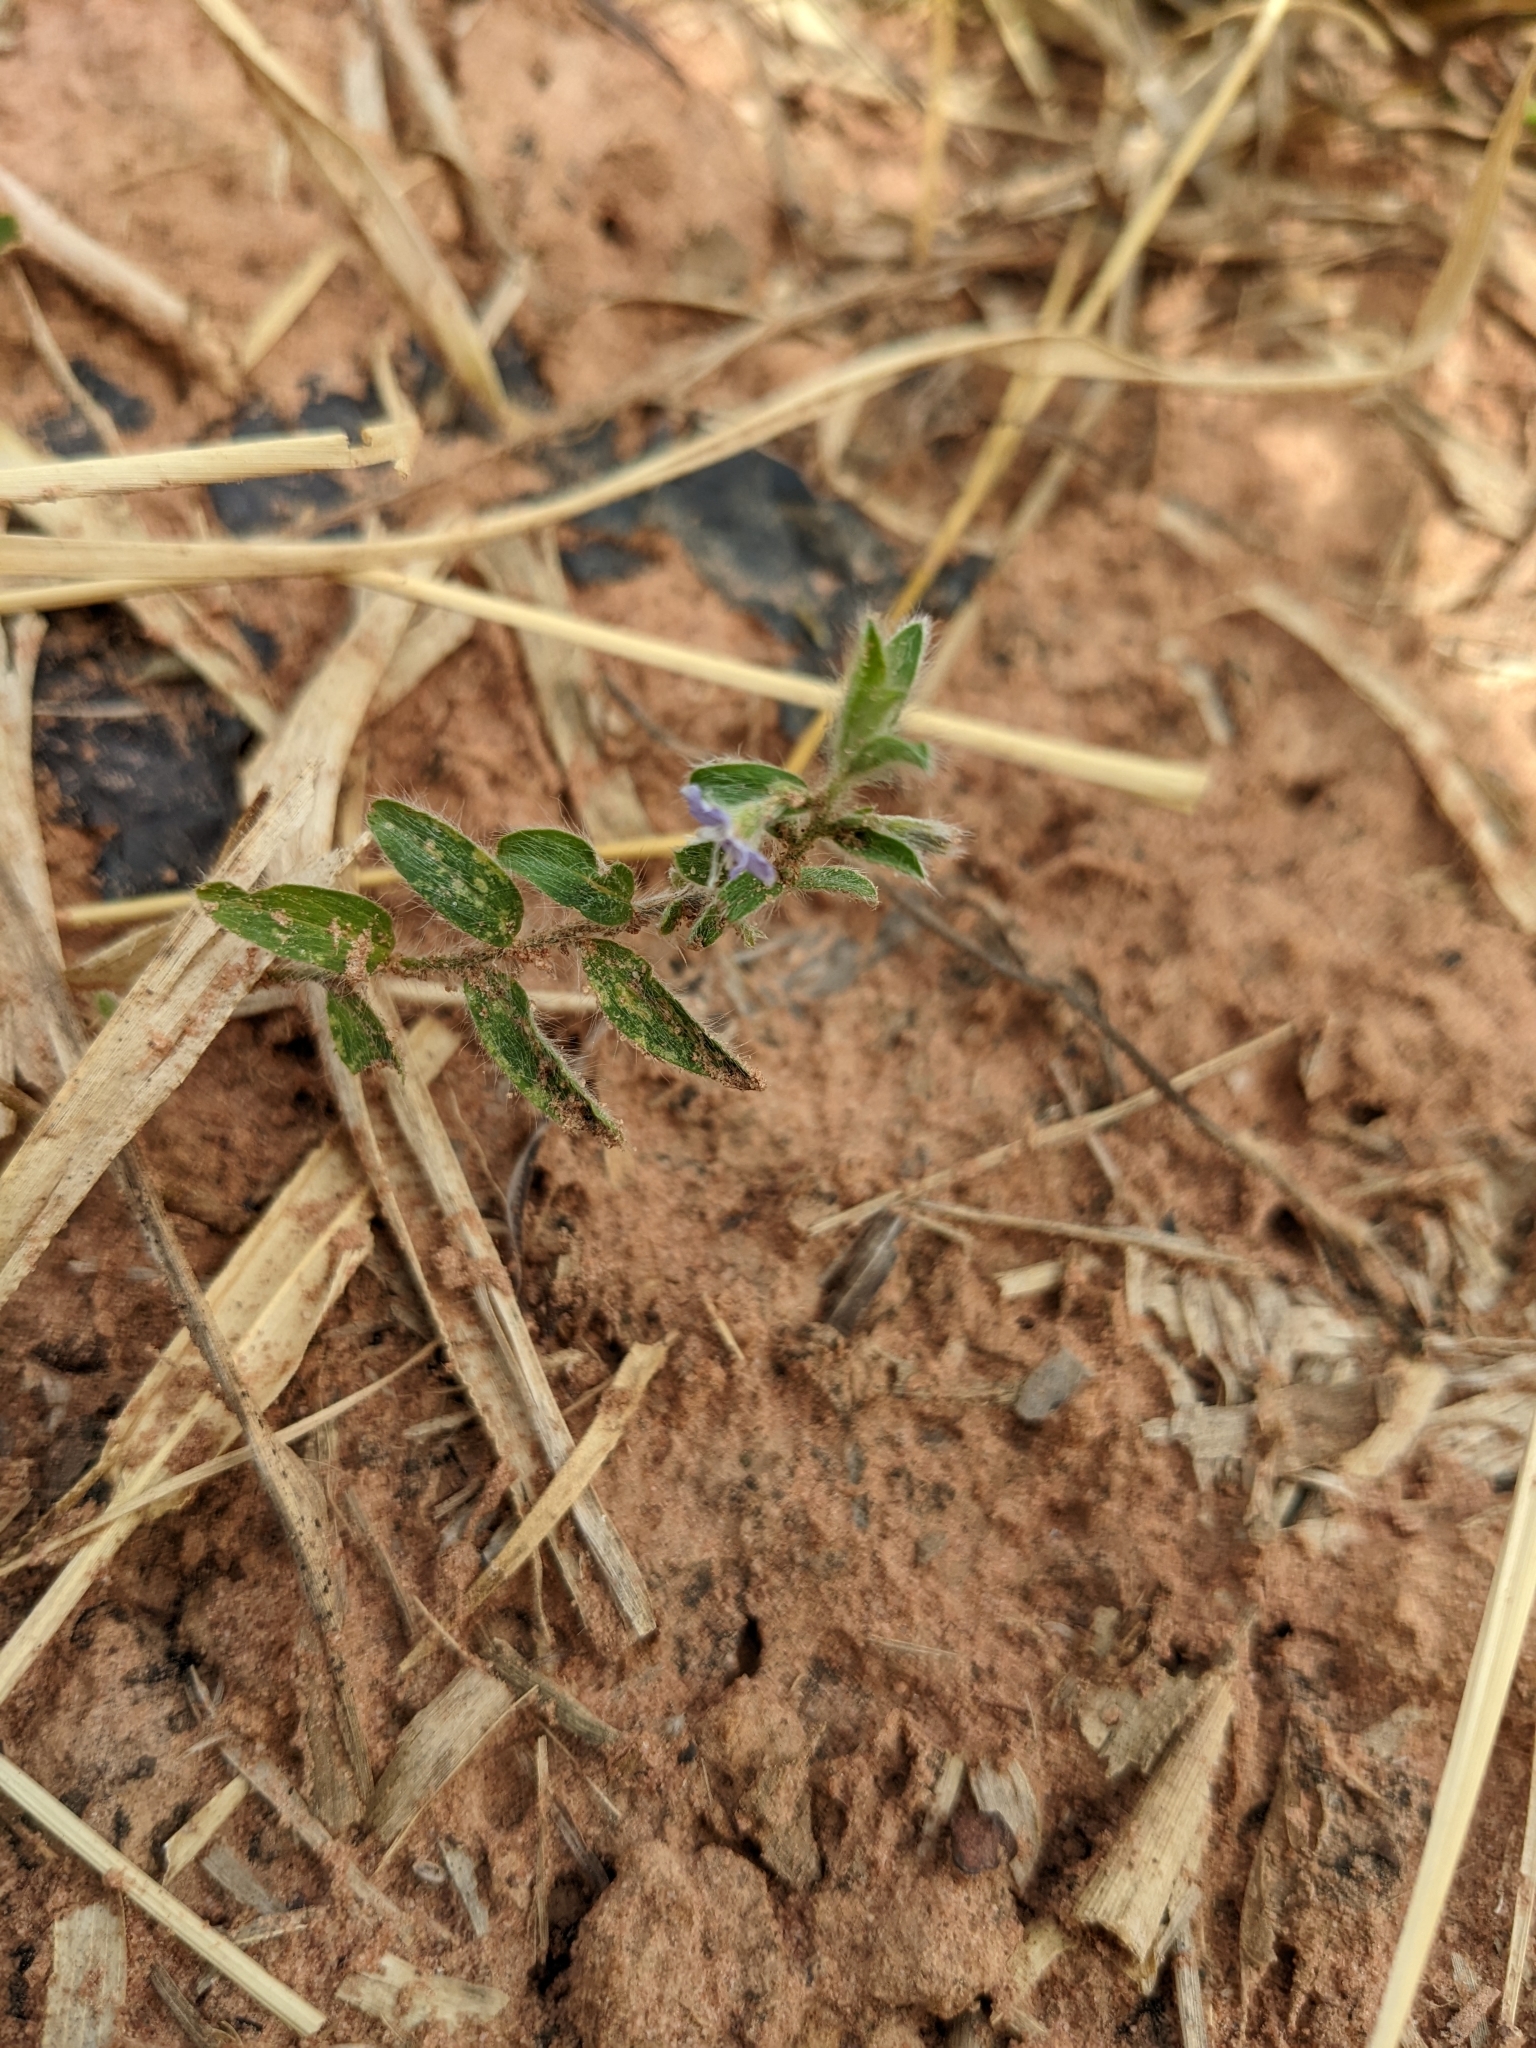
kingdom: Plantae
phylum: Tracheophyta
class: Magnoliopsida
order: Solanales
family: Convolvulaceae
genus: Evolvulus
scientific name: Evolvulus alsinoides
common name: Slender dwarf morning-glory
